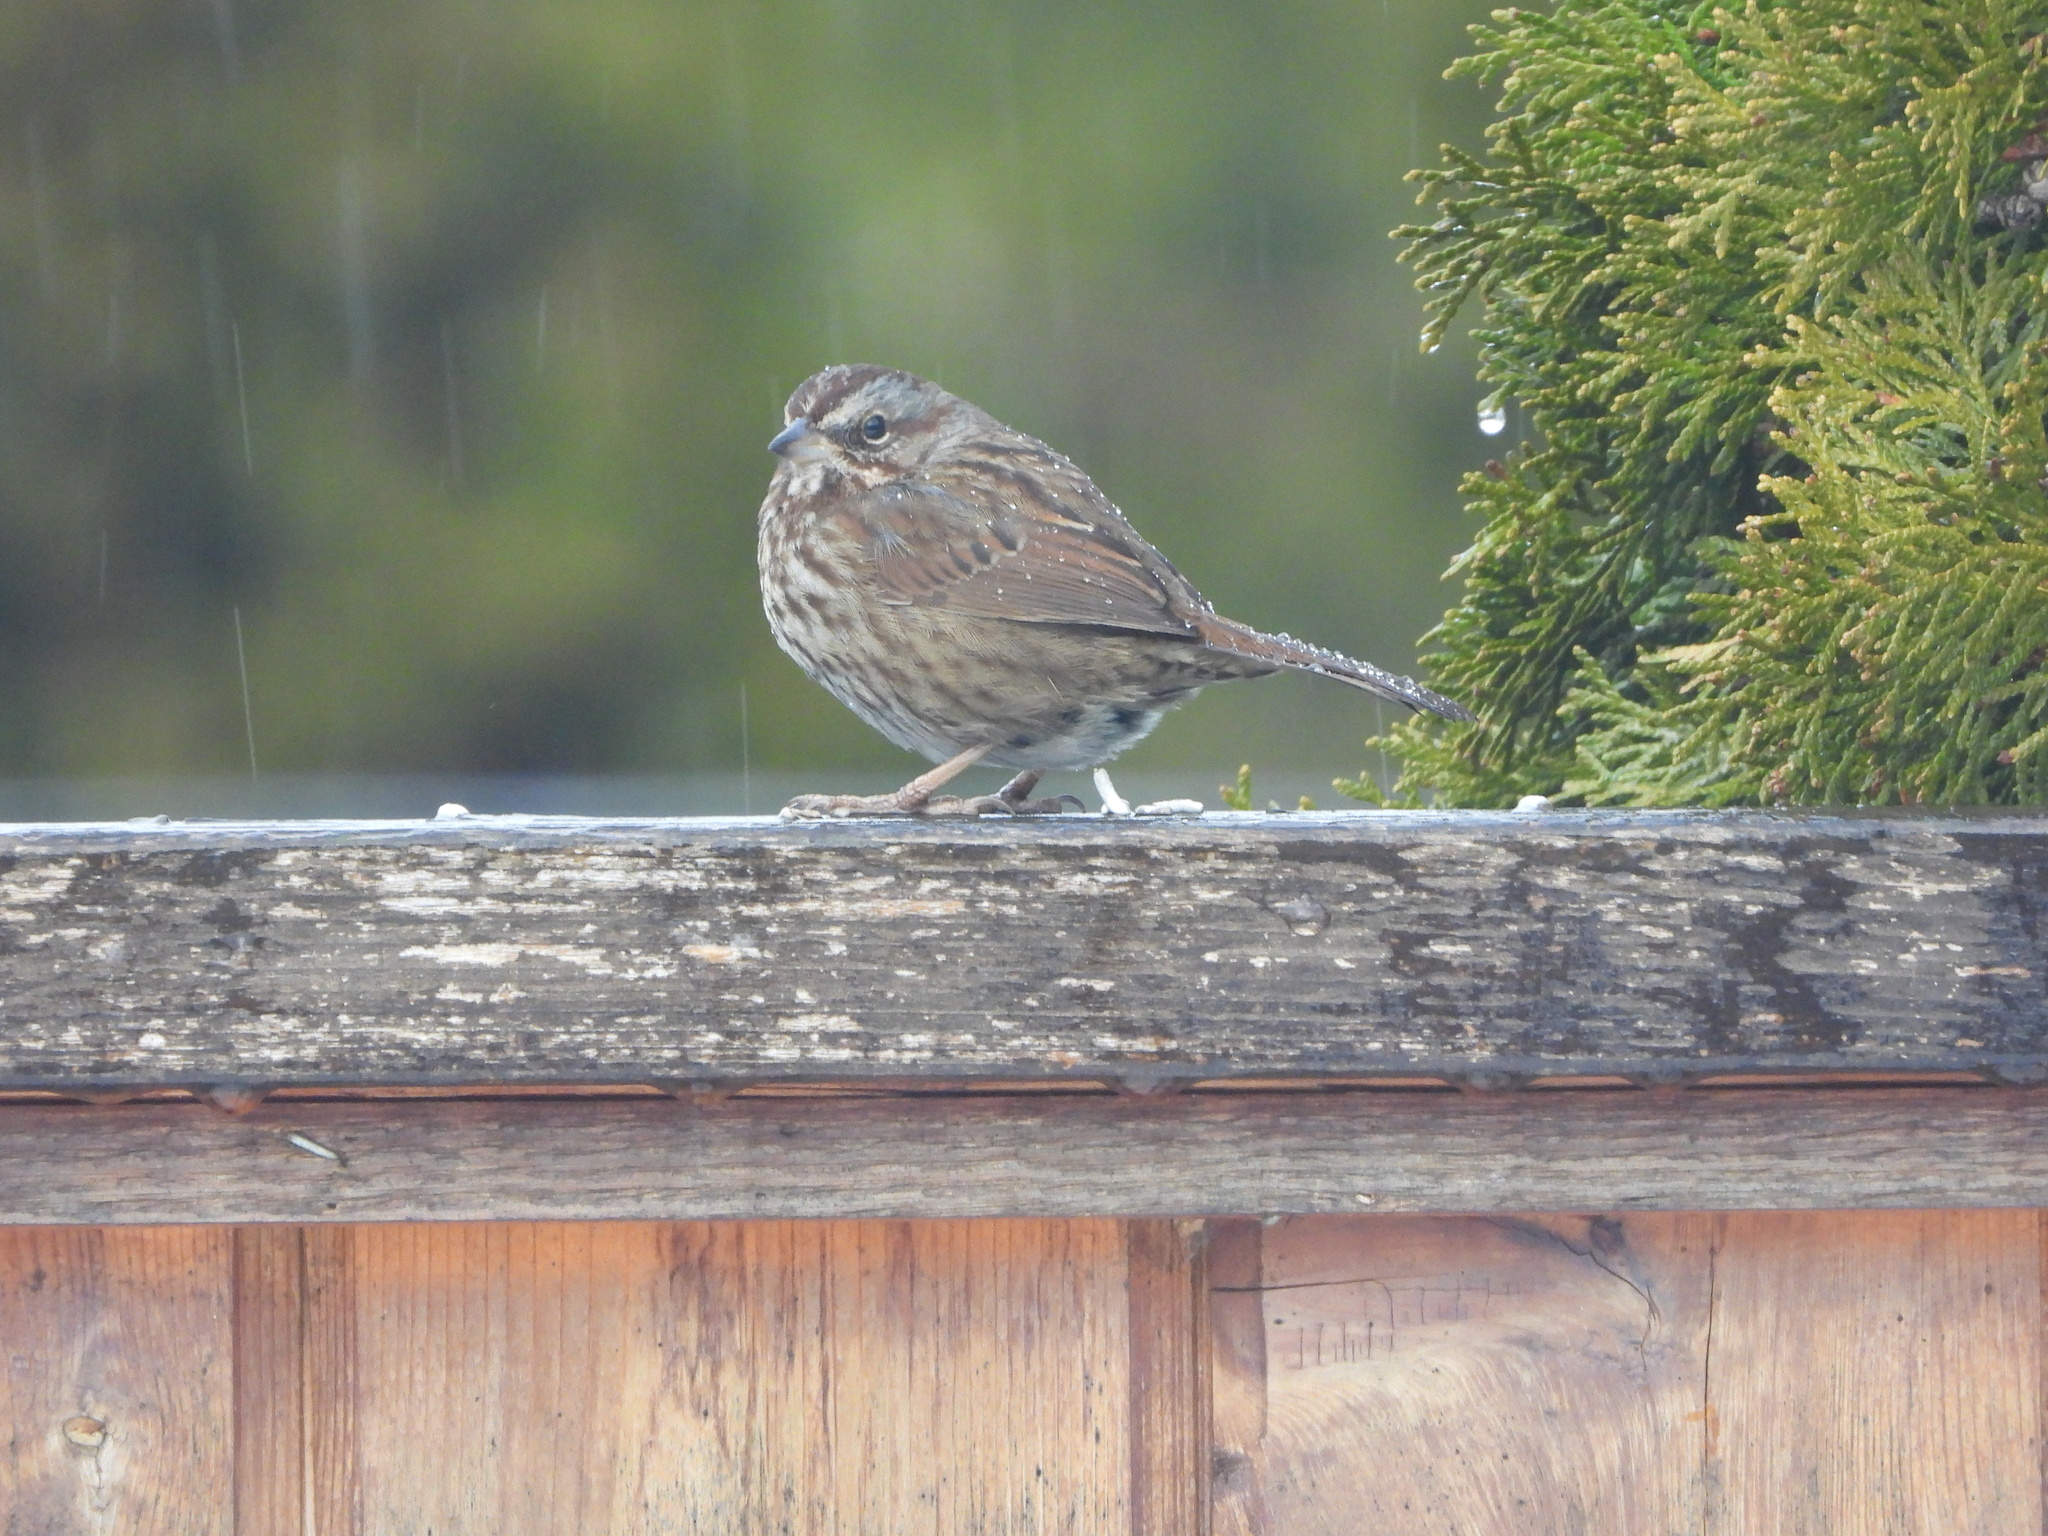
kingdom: Animalia
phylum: Chordata
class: Aves
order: Passeriformes
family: Passerellidae
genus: Melospiza
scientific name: Melospiza melodia
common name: Song sparrow
